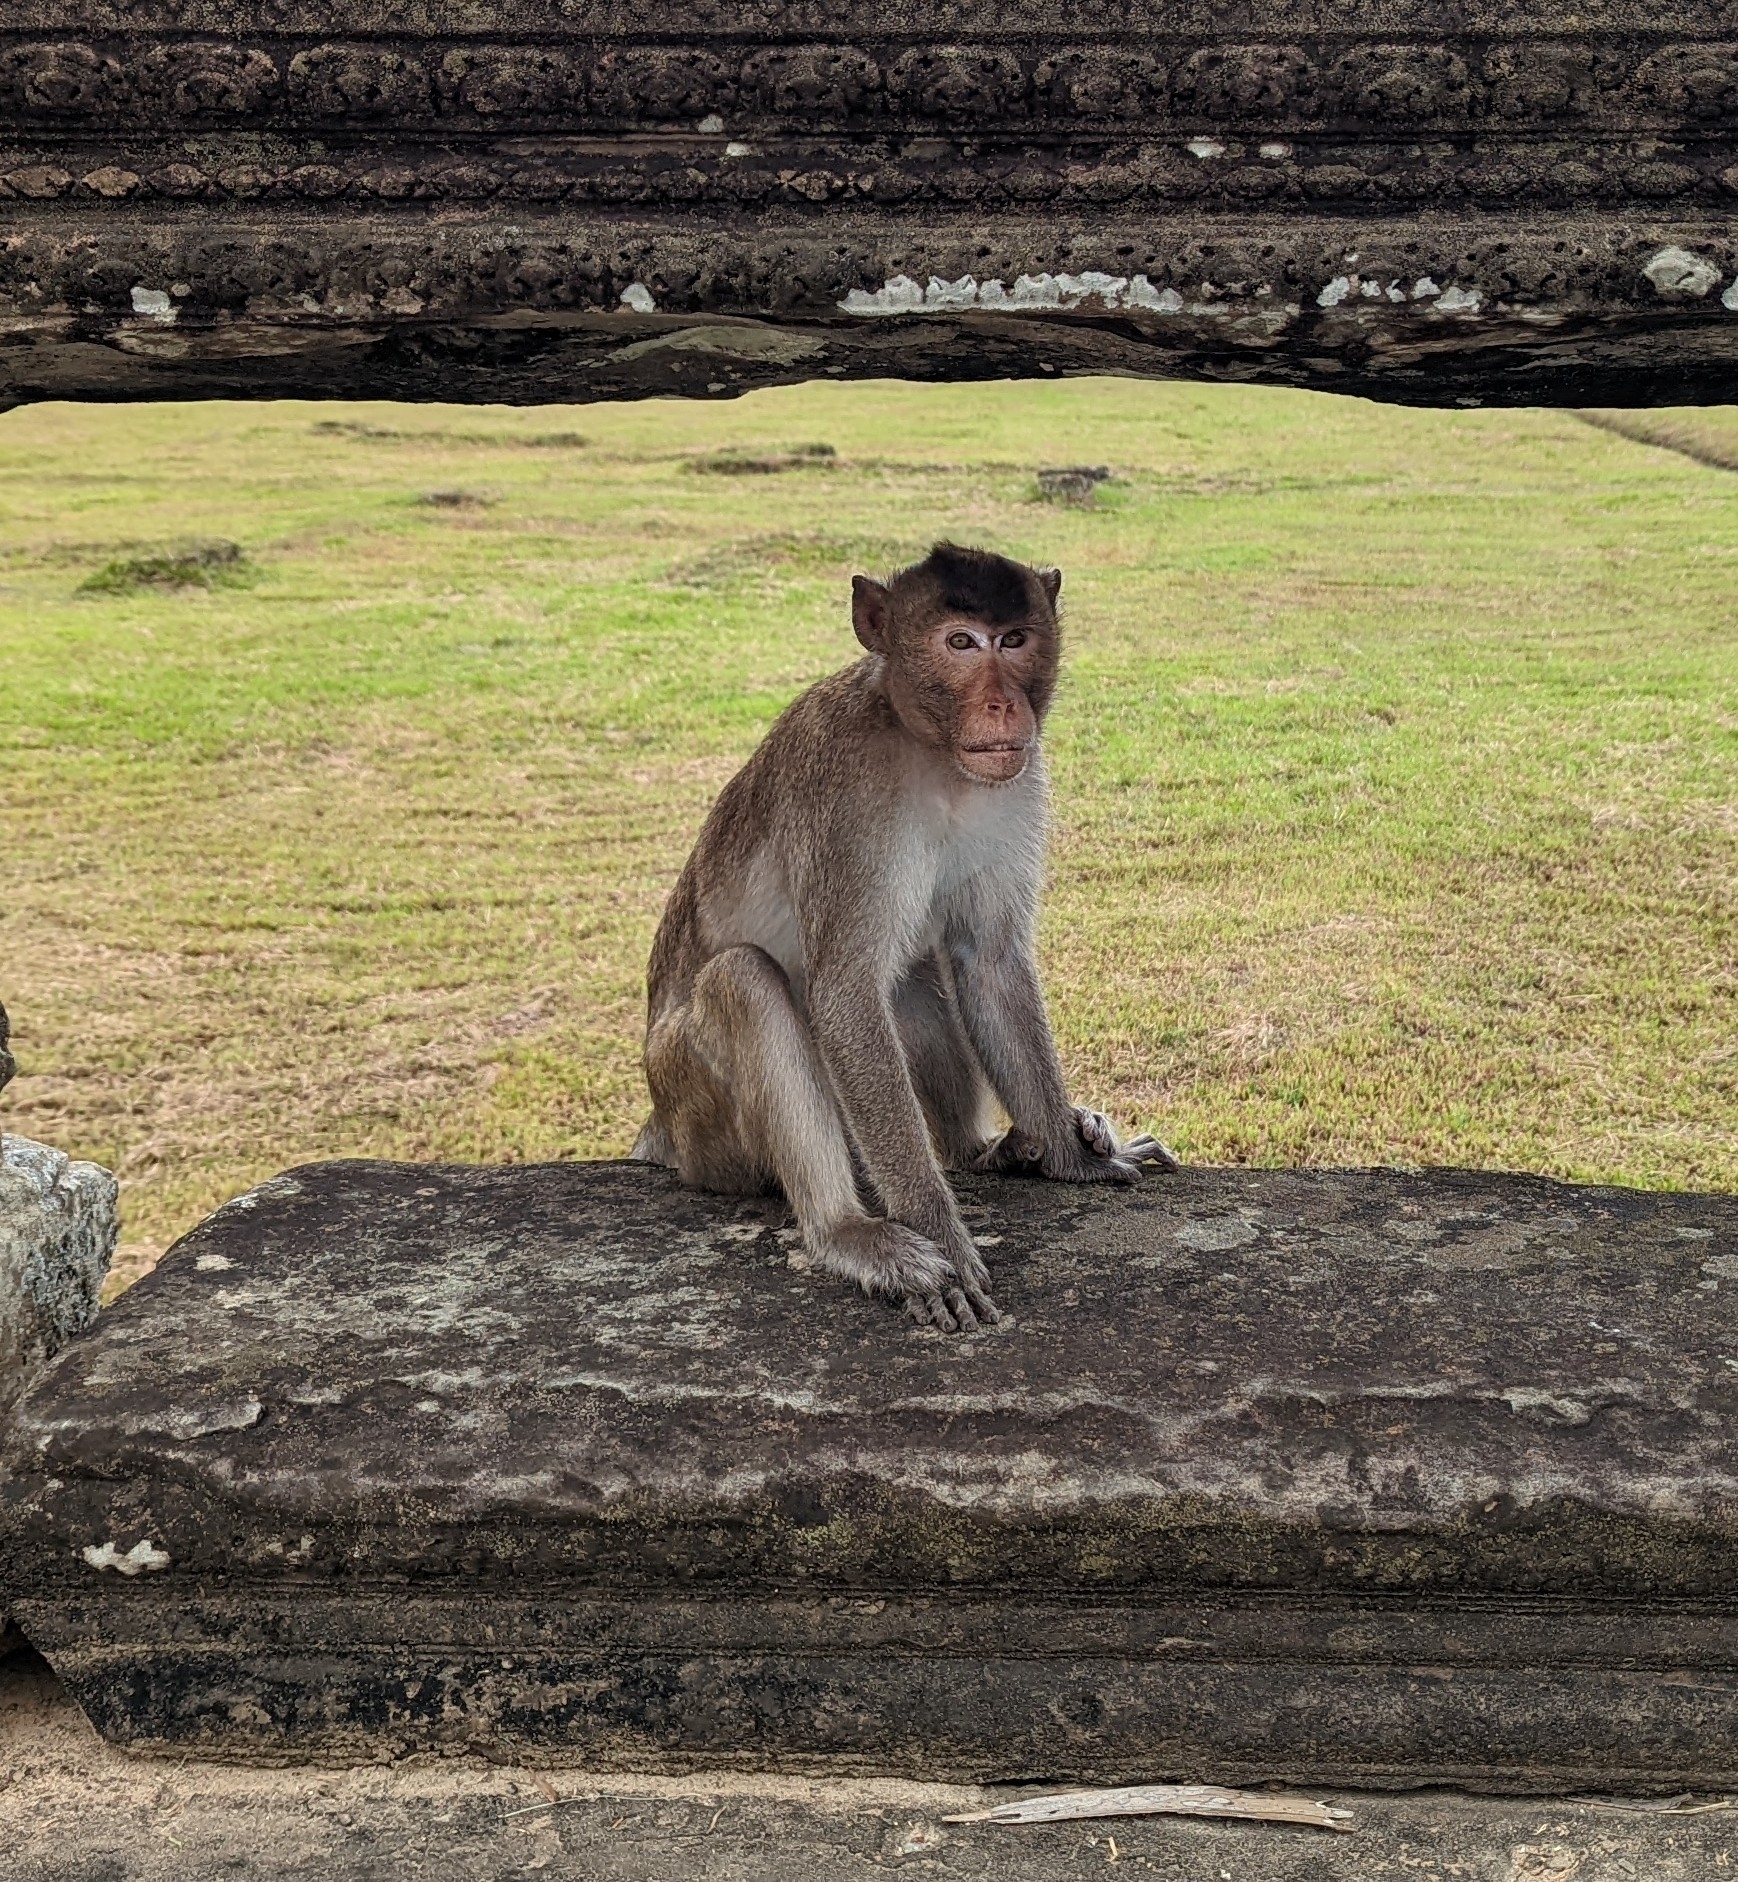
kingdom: Animalia
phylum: Chordata
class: Mammalia
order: Primates
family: Cercopithecidae
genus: Macaca
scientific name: Macaca fascicularis
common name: Crab-eating macaque
